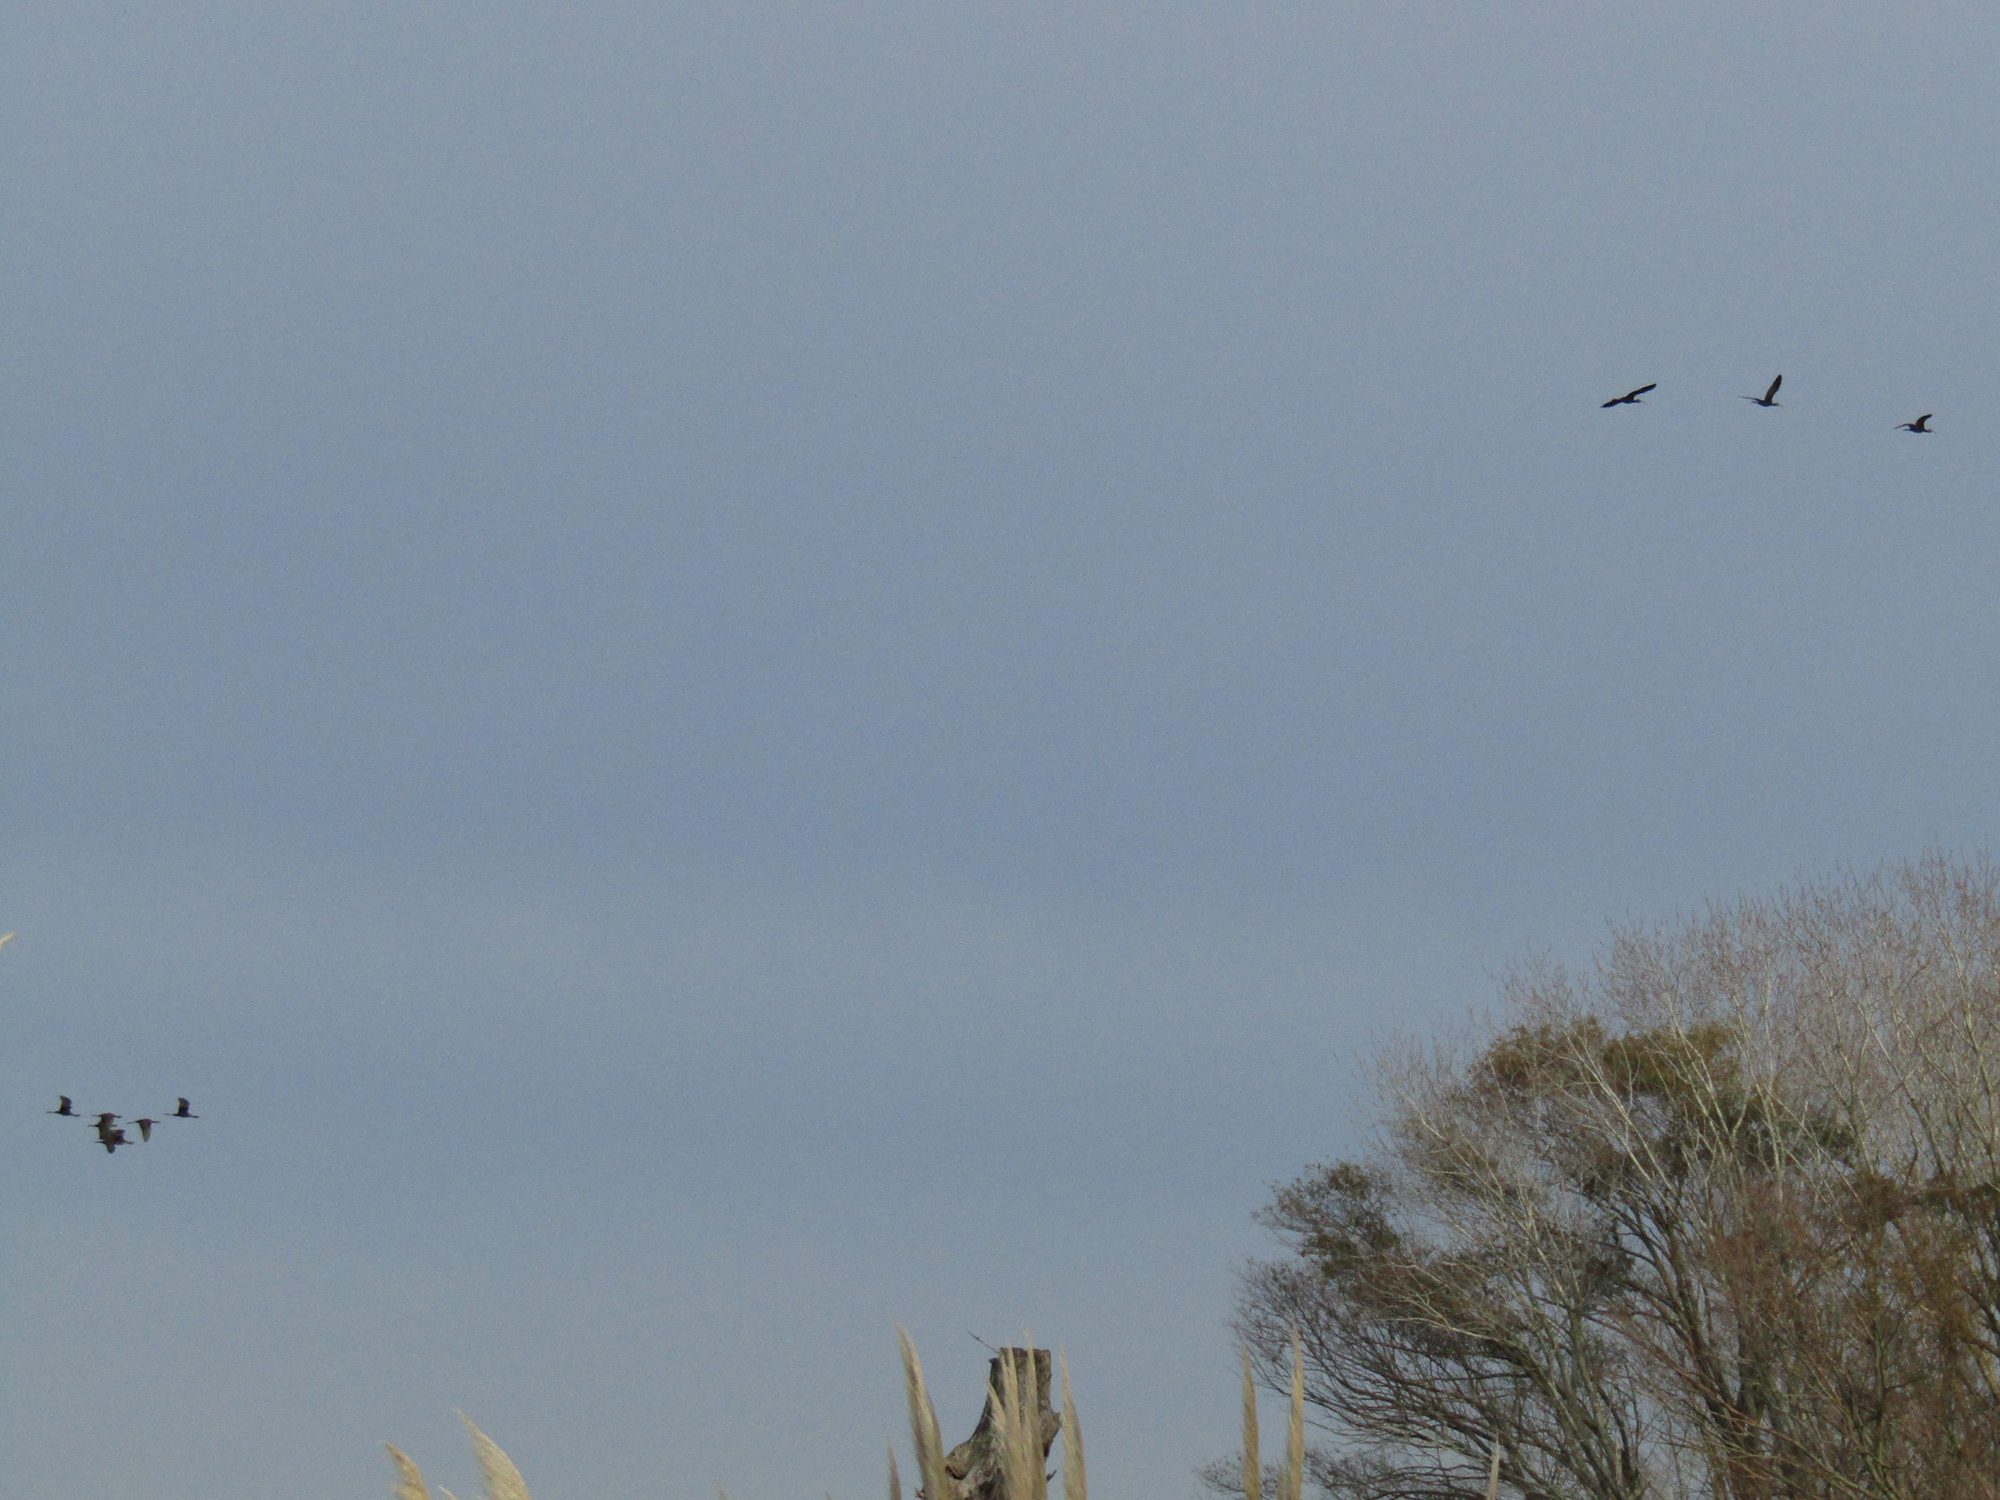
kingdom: Animalia
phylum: Chordata
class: Aves
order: Pelecaniformes
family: Threskiornithidae
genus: Plegadis
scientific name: Plegadis chihi
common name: White-faced ibis
